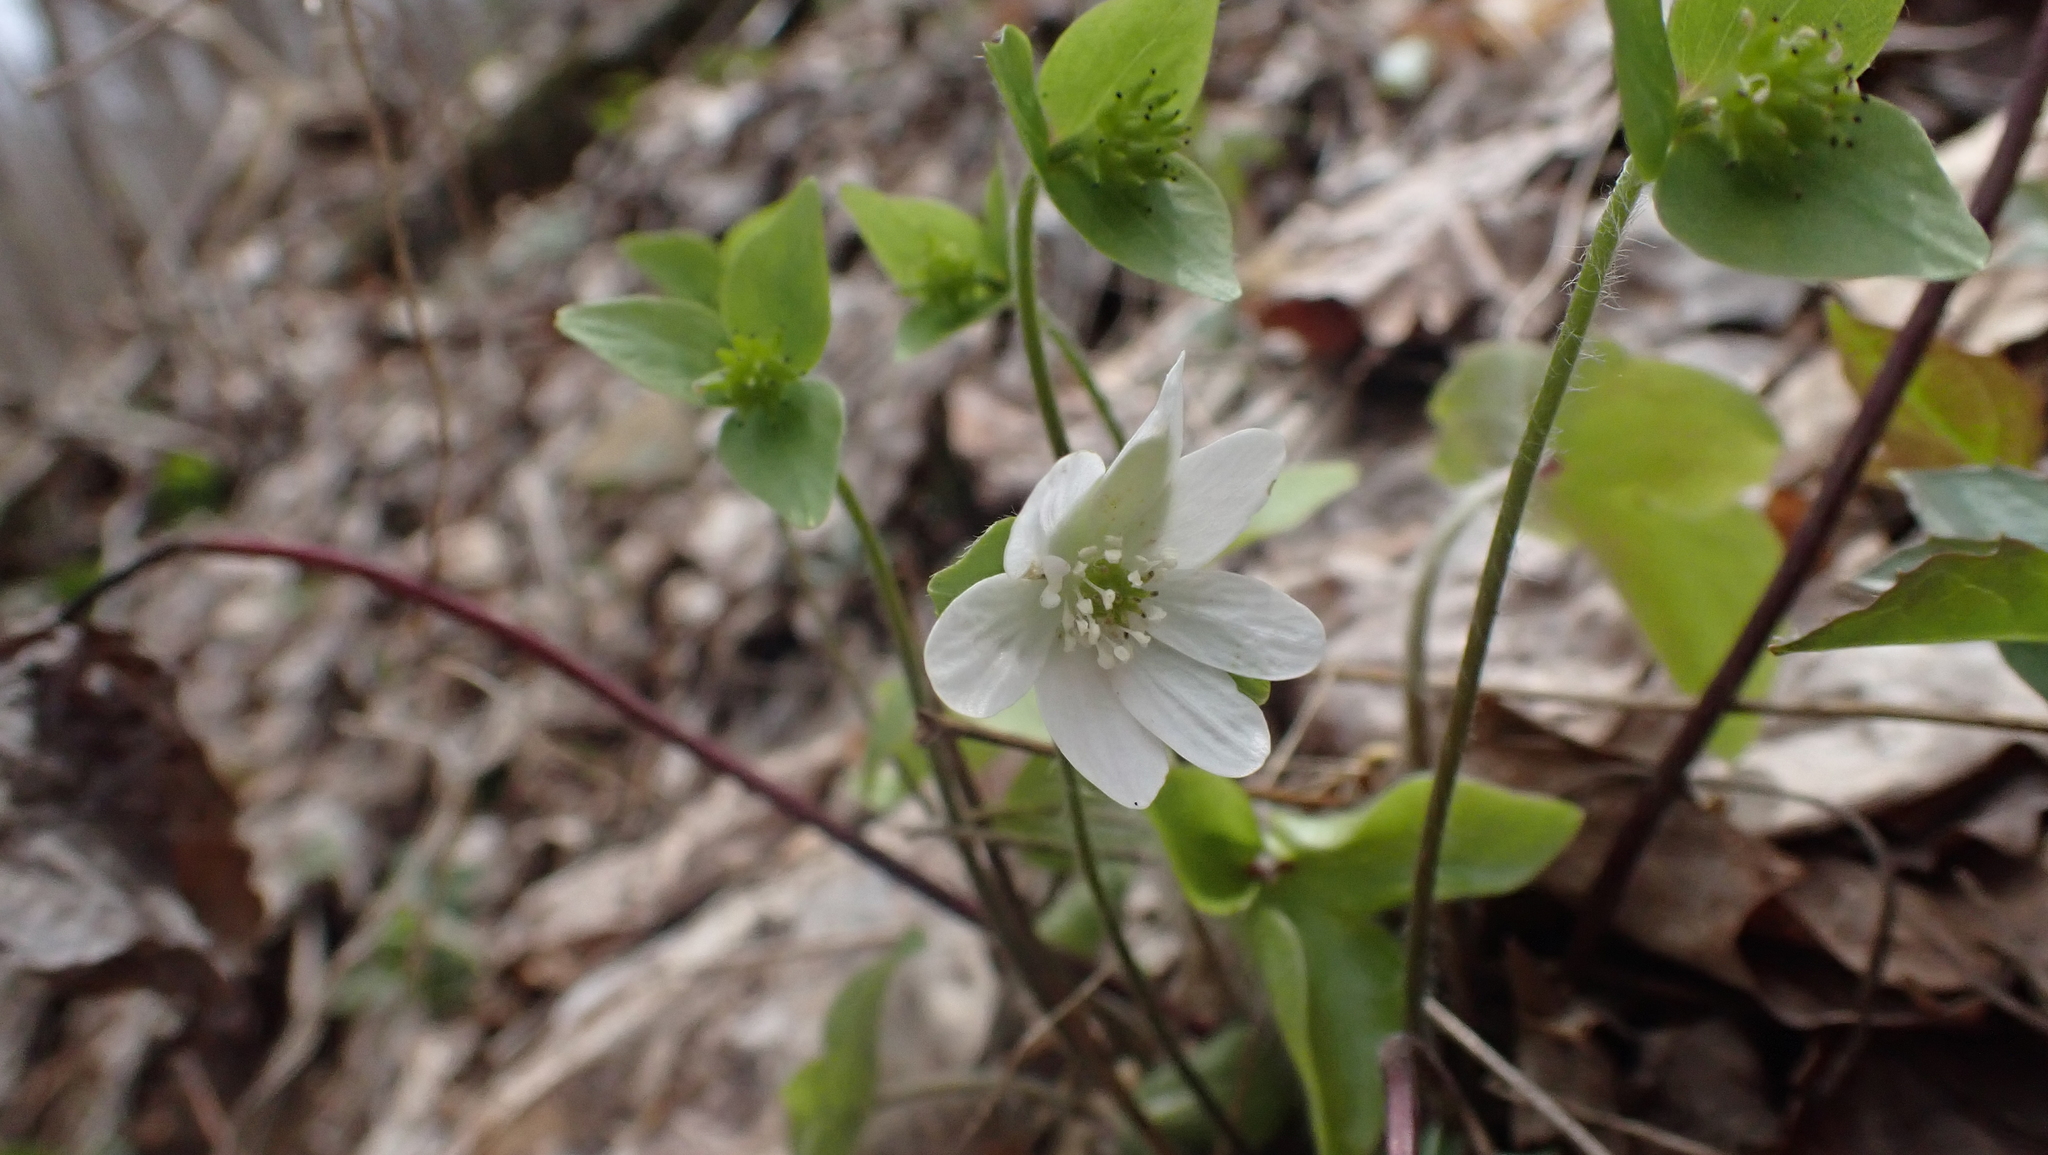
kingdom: Plantae
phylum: Tracheophyta
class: Magnoliopsida
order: Ranunculales
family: Ranunculaceae
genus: Hepatica
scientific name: Hepatica acutiloba
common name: Sharp-lobed hepatica
